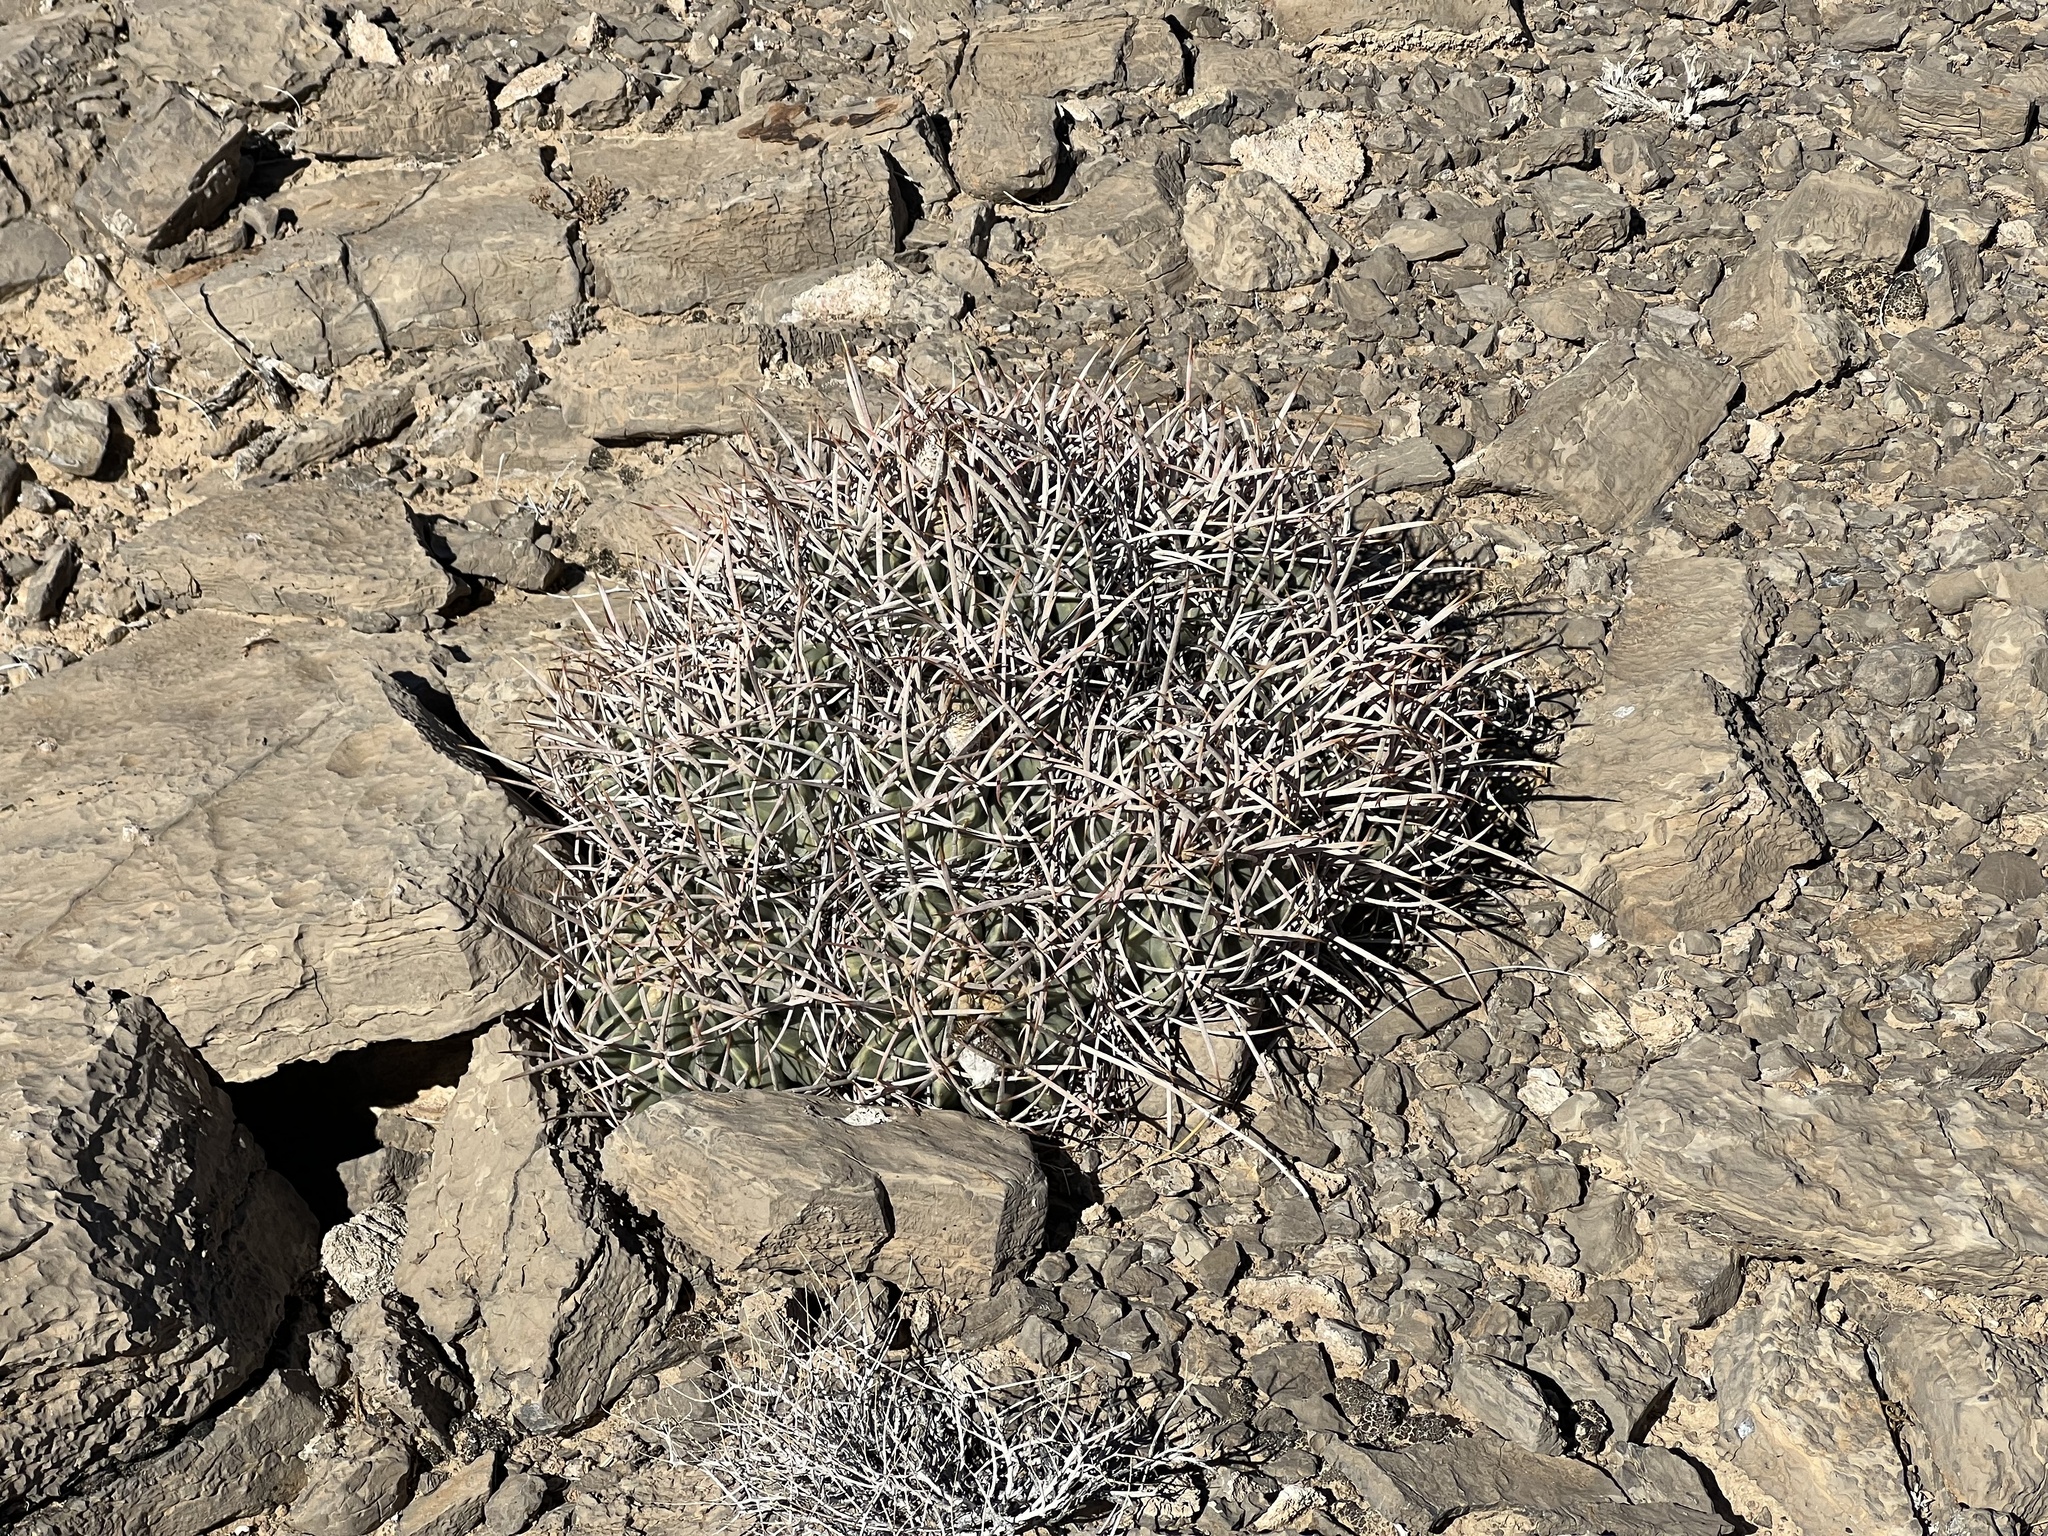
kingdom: Plantae
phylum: Tracheophyta
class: Magnoliopsida
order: Caryophyllales
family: Cactaceae
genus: Echinocactus
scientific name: Echinocactus polycephalus
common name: Cottontop cactus
